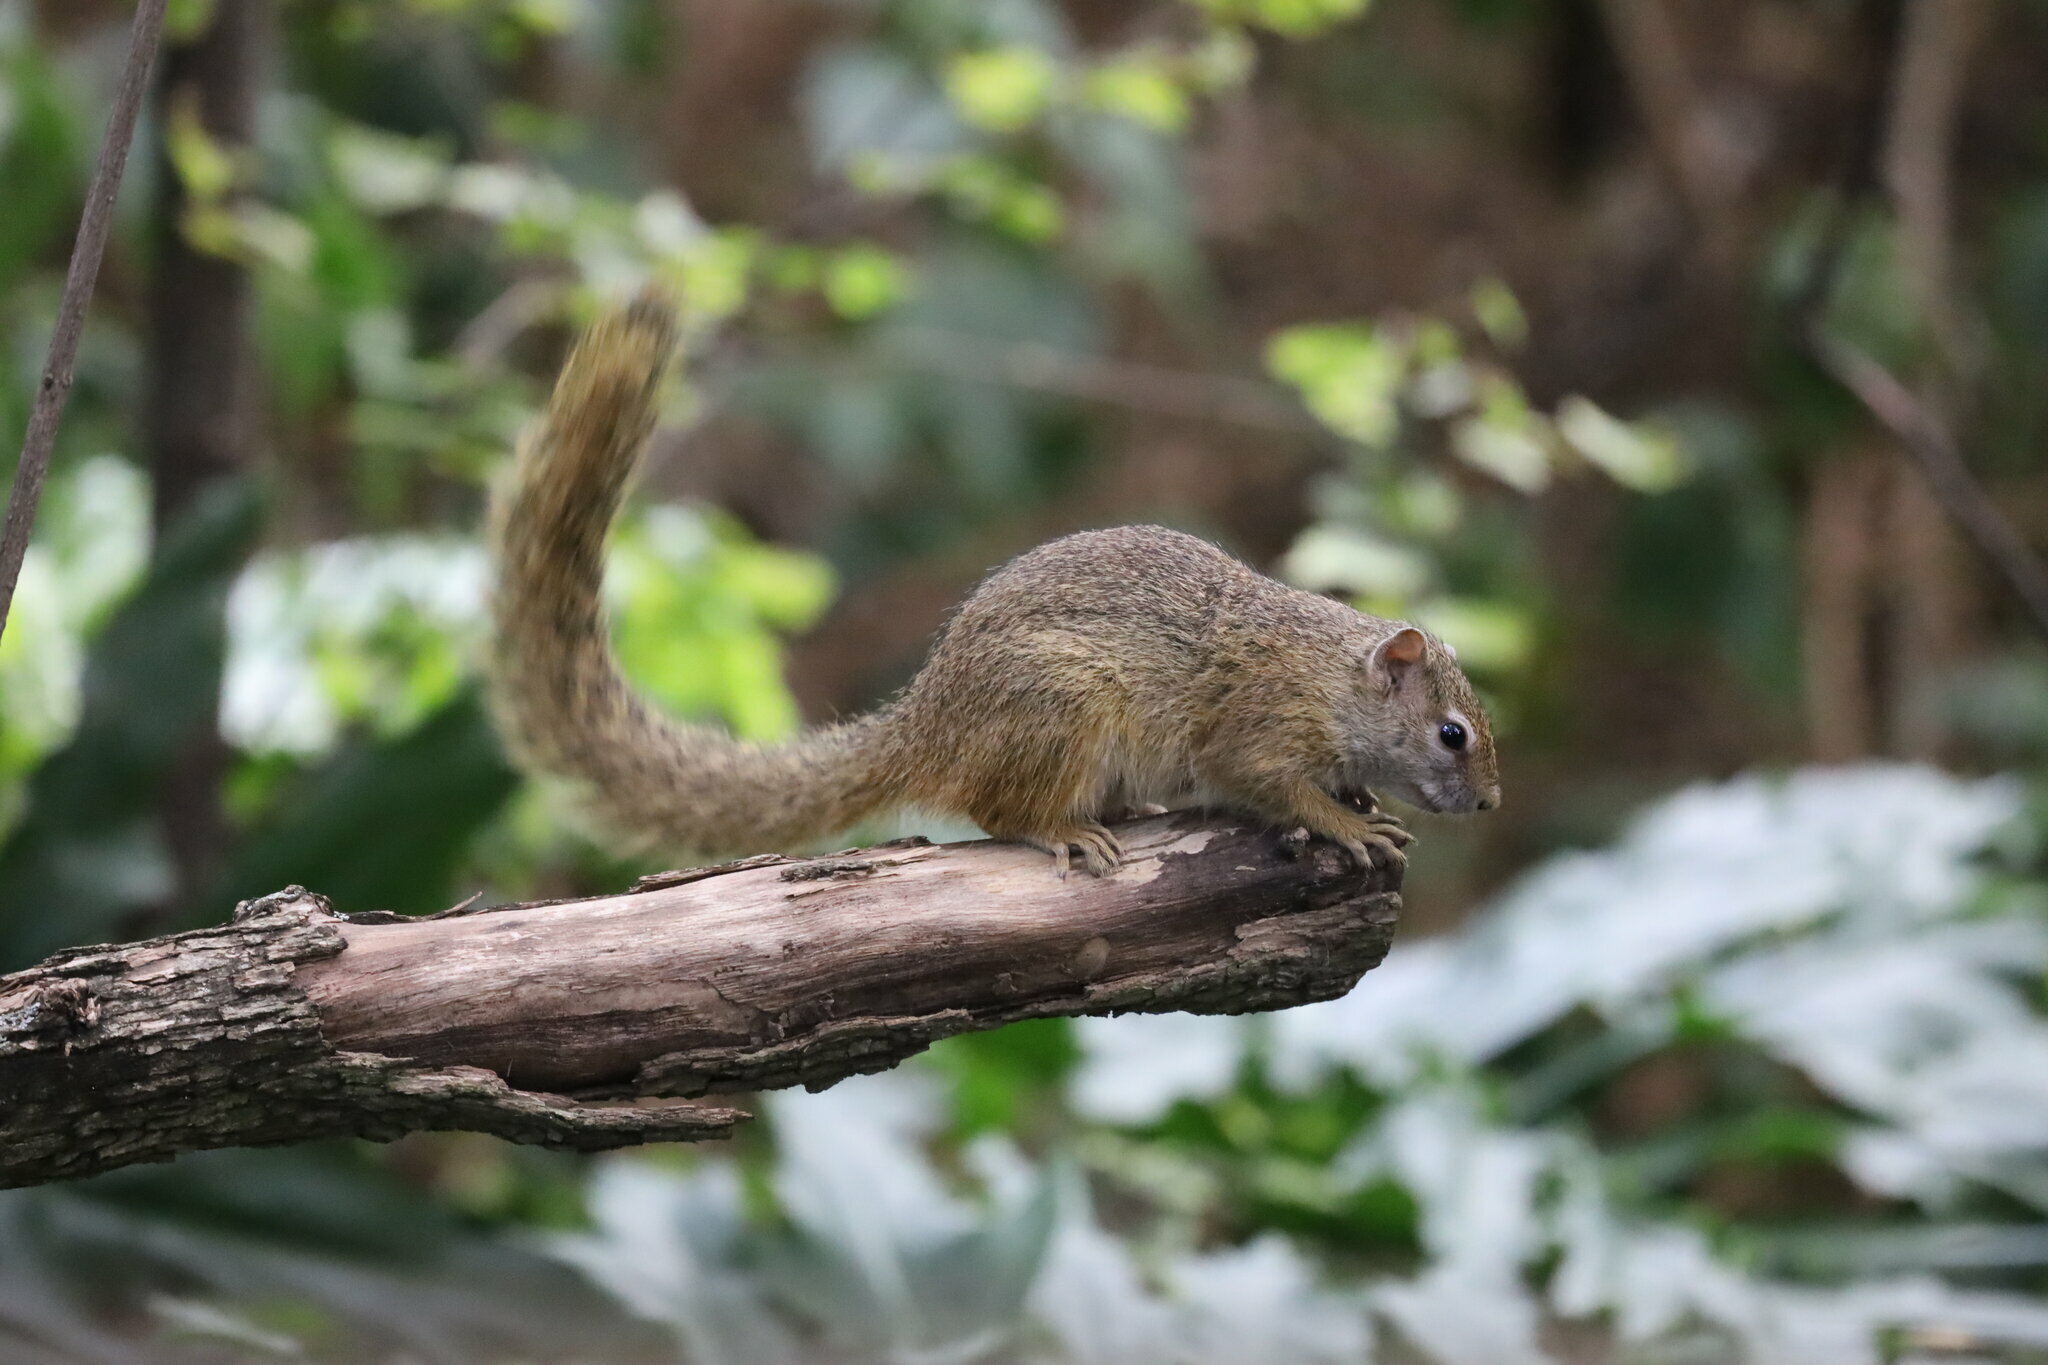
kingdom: Animalia
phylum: Chordata
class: Mammalia
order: Rodentia
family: Sciuridae
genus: Paraxerus
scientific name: Paraxerus cepapi
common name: Smith's bush squirrel
